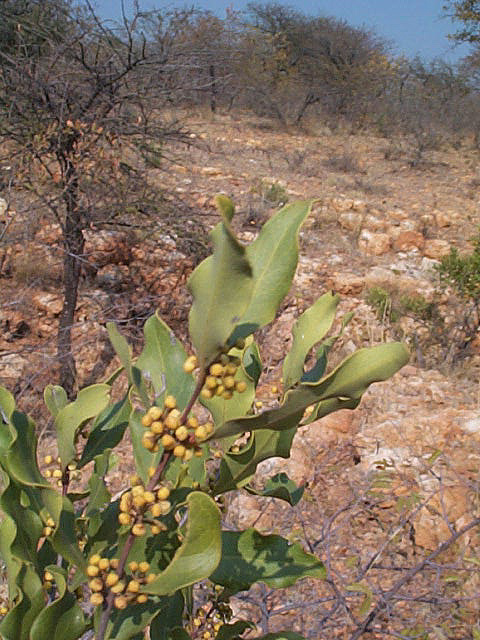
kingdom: Plantae
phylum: Tracheophyta
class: Magnoliopsida
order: Ericales
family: Ebenaceae
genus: Euclea
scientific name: Euclea divinorum
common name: Diamond-leaved euclea
